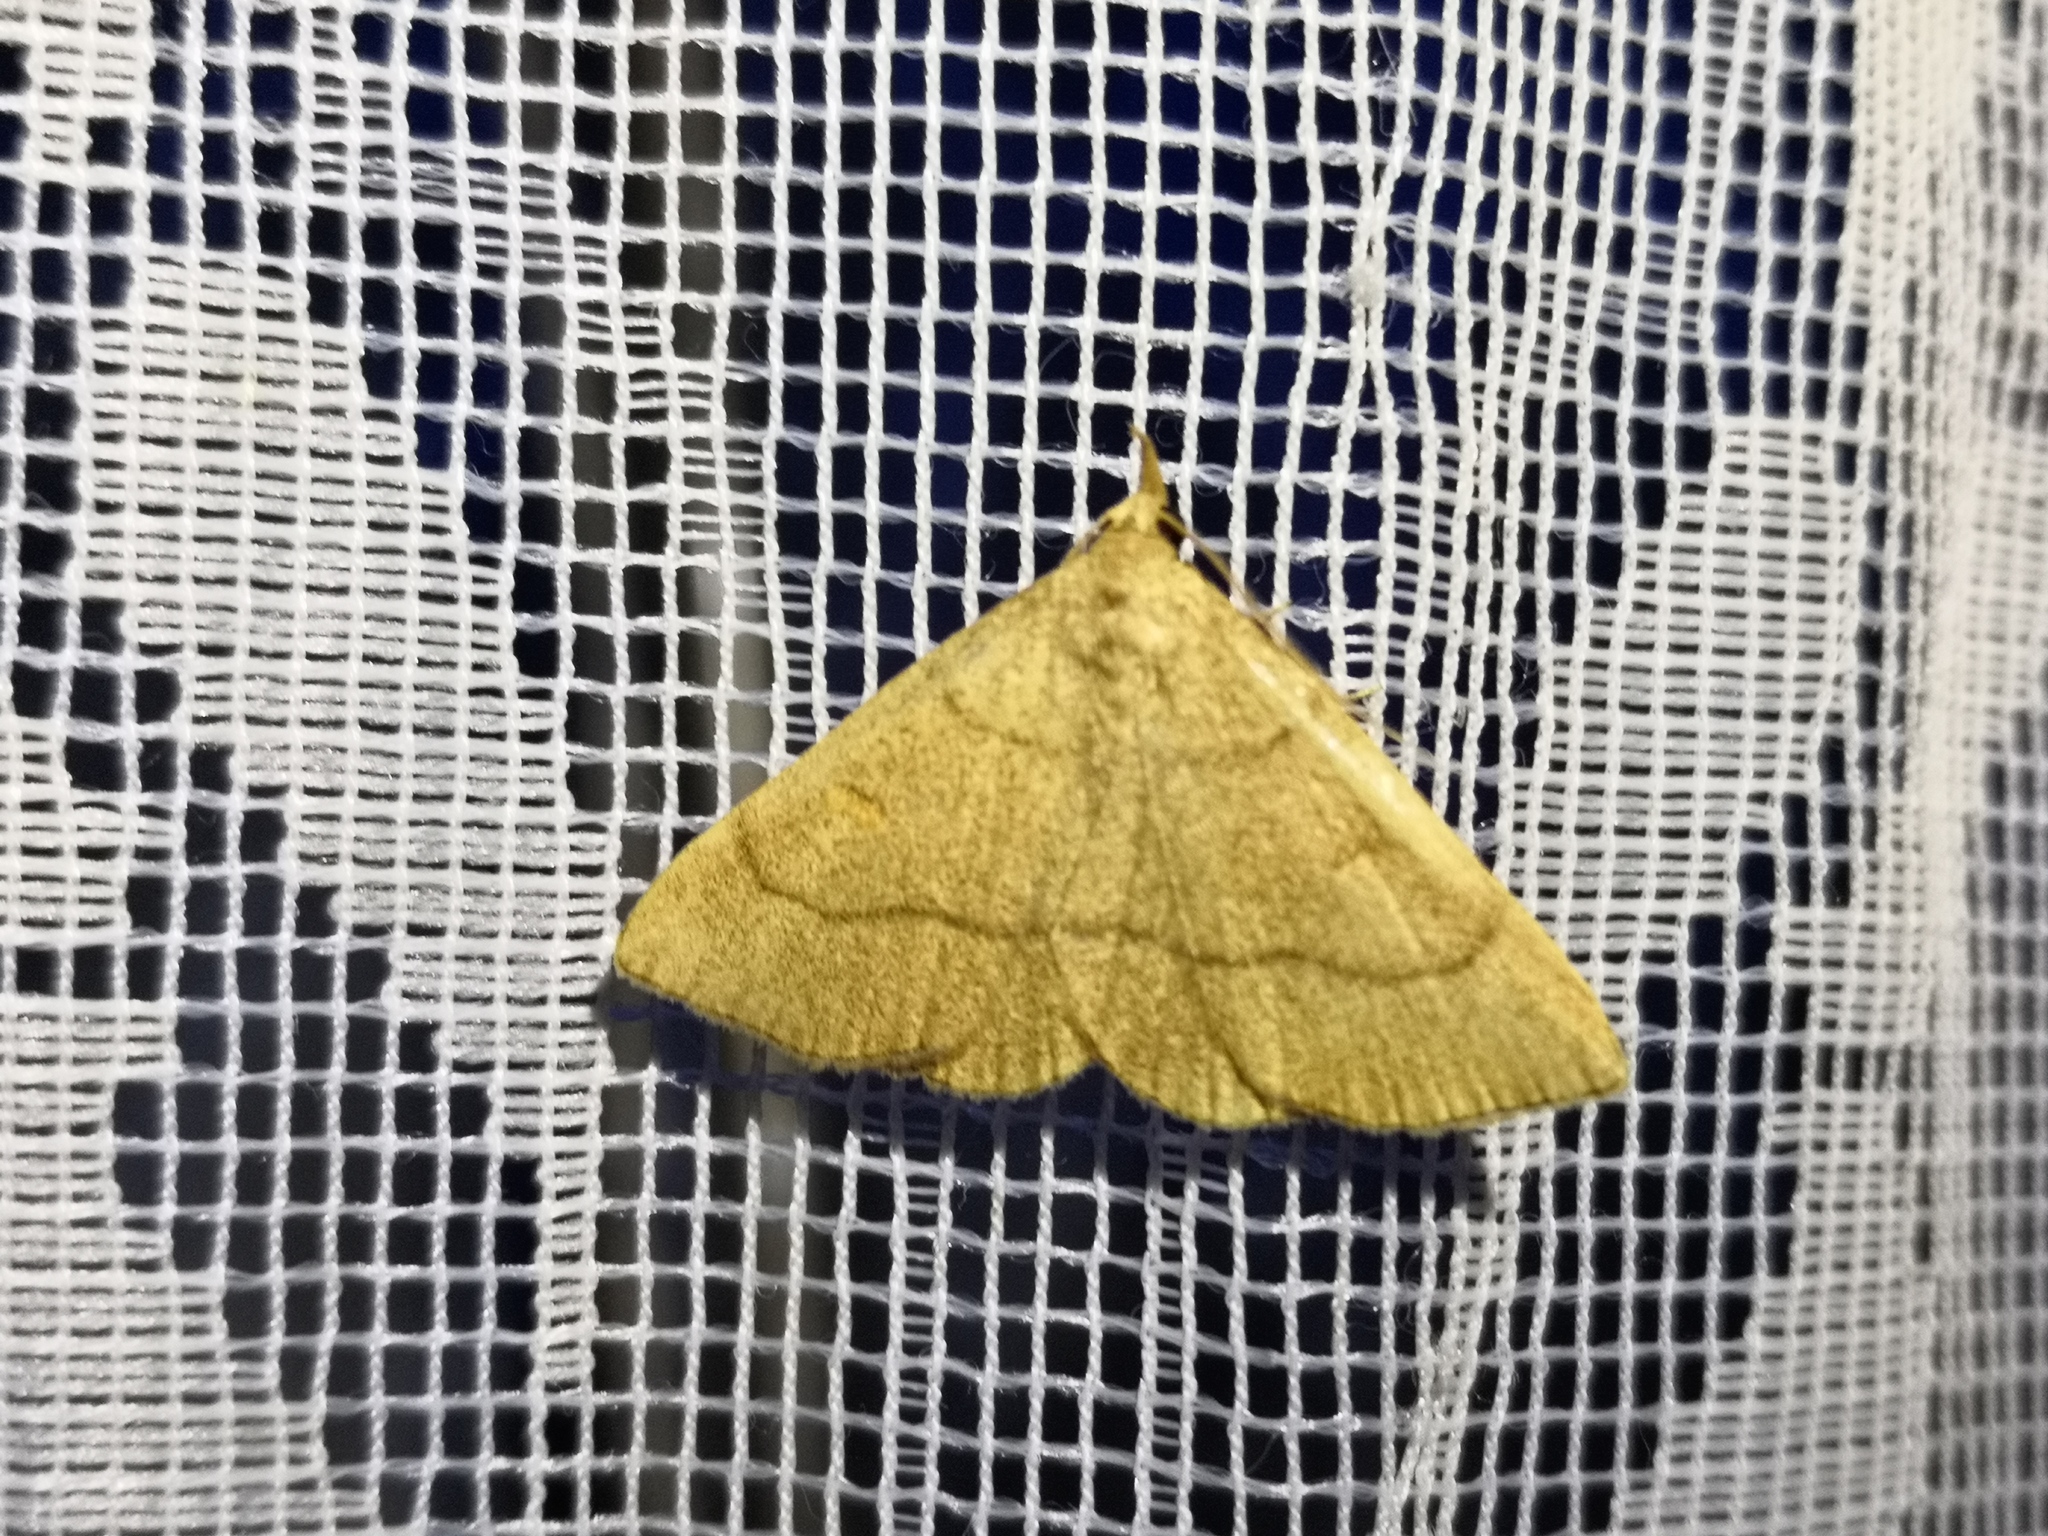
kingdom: Animalia
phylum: Arthropoda
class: Insecta
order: Lepidoptera
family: Erebidae
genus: Paracolax
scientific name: Paracolax tristalis
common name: Clay fan-foot
